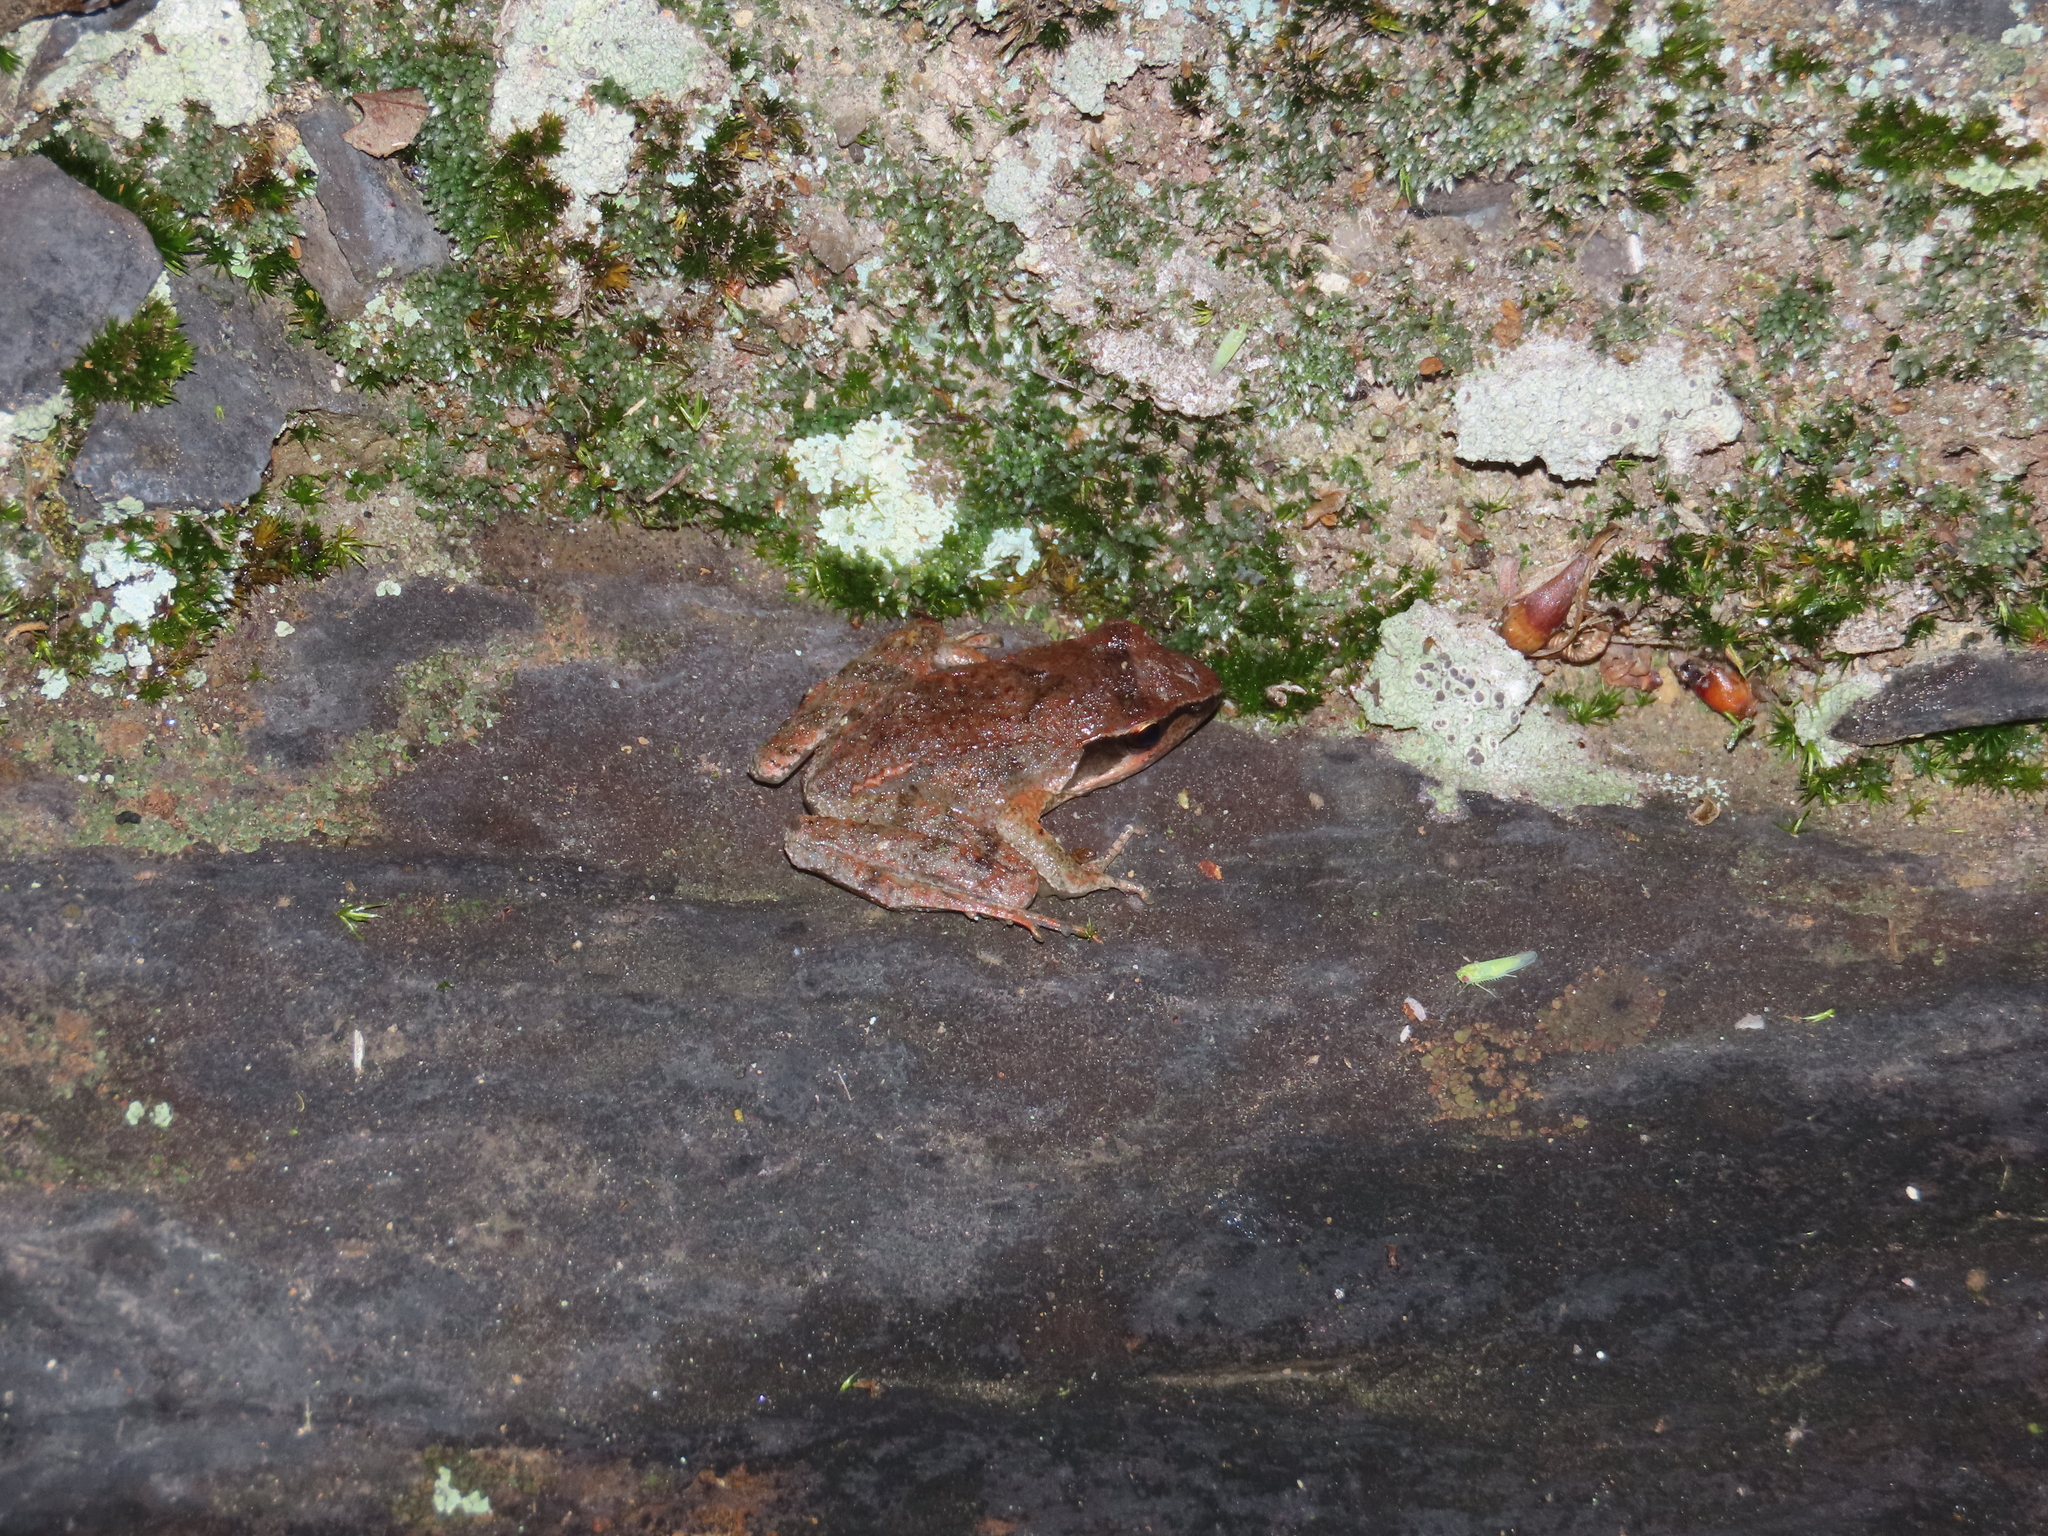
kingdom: Animalia
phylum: Chordata
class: Amphibia
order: Anura
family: Ranidae
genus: Rana
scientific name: Rana sauteri
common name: Kanshirei village frog
